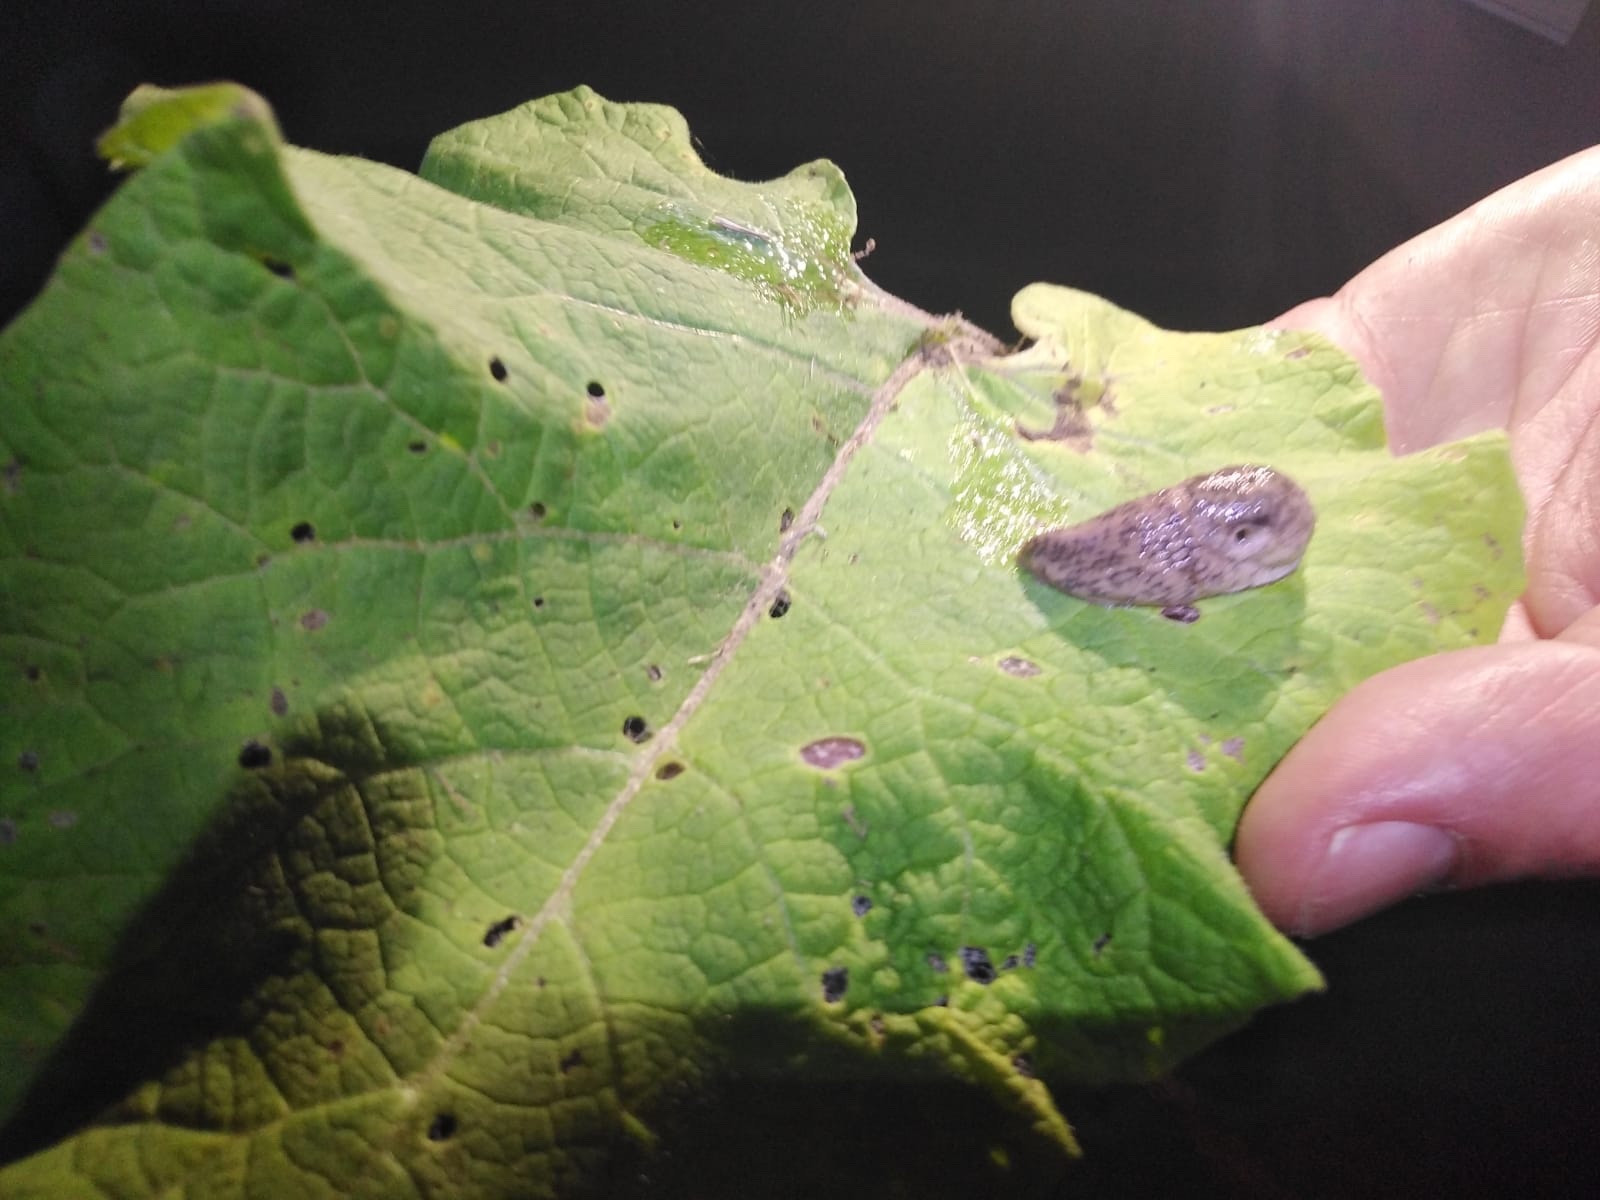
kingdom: Animalia
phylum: Mollusca
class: Gastropoda
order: Stylommatophora
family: Agriolimacidae
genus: Deroceras
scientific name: Deroceras reticulatum
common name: Gray field slug
